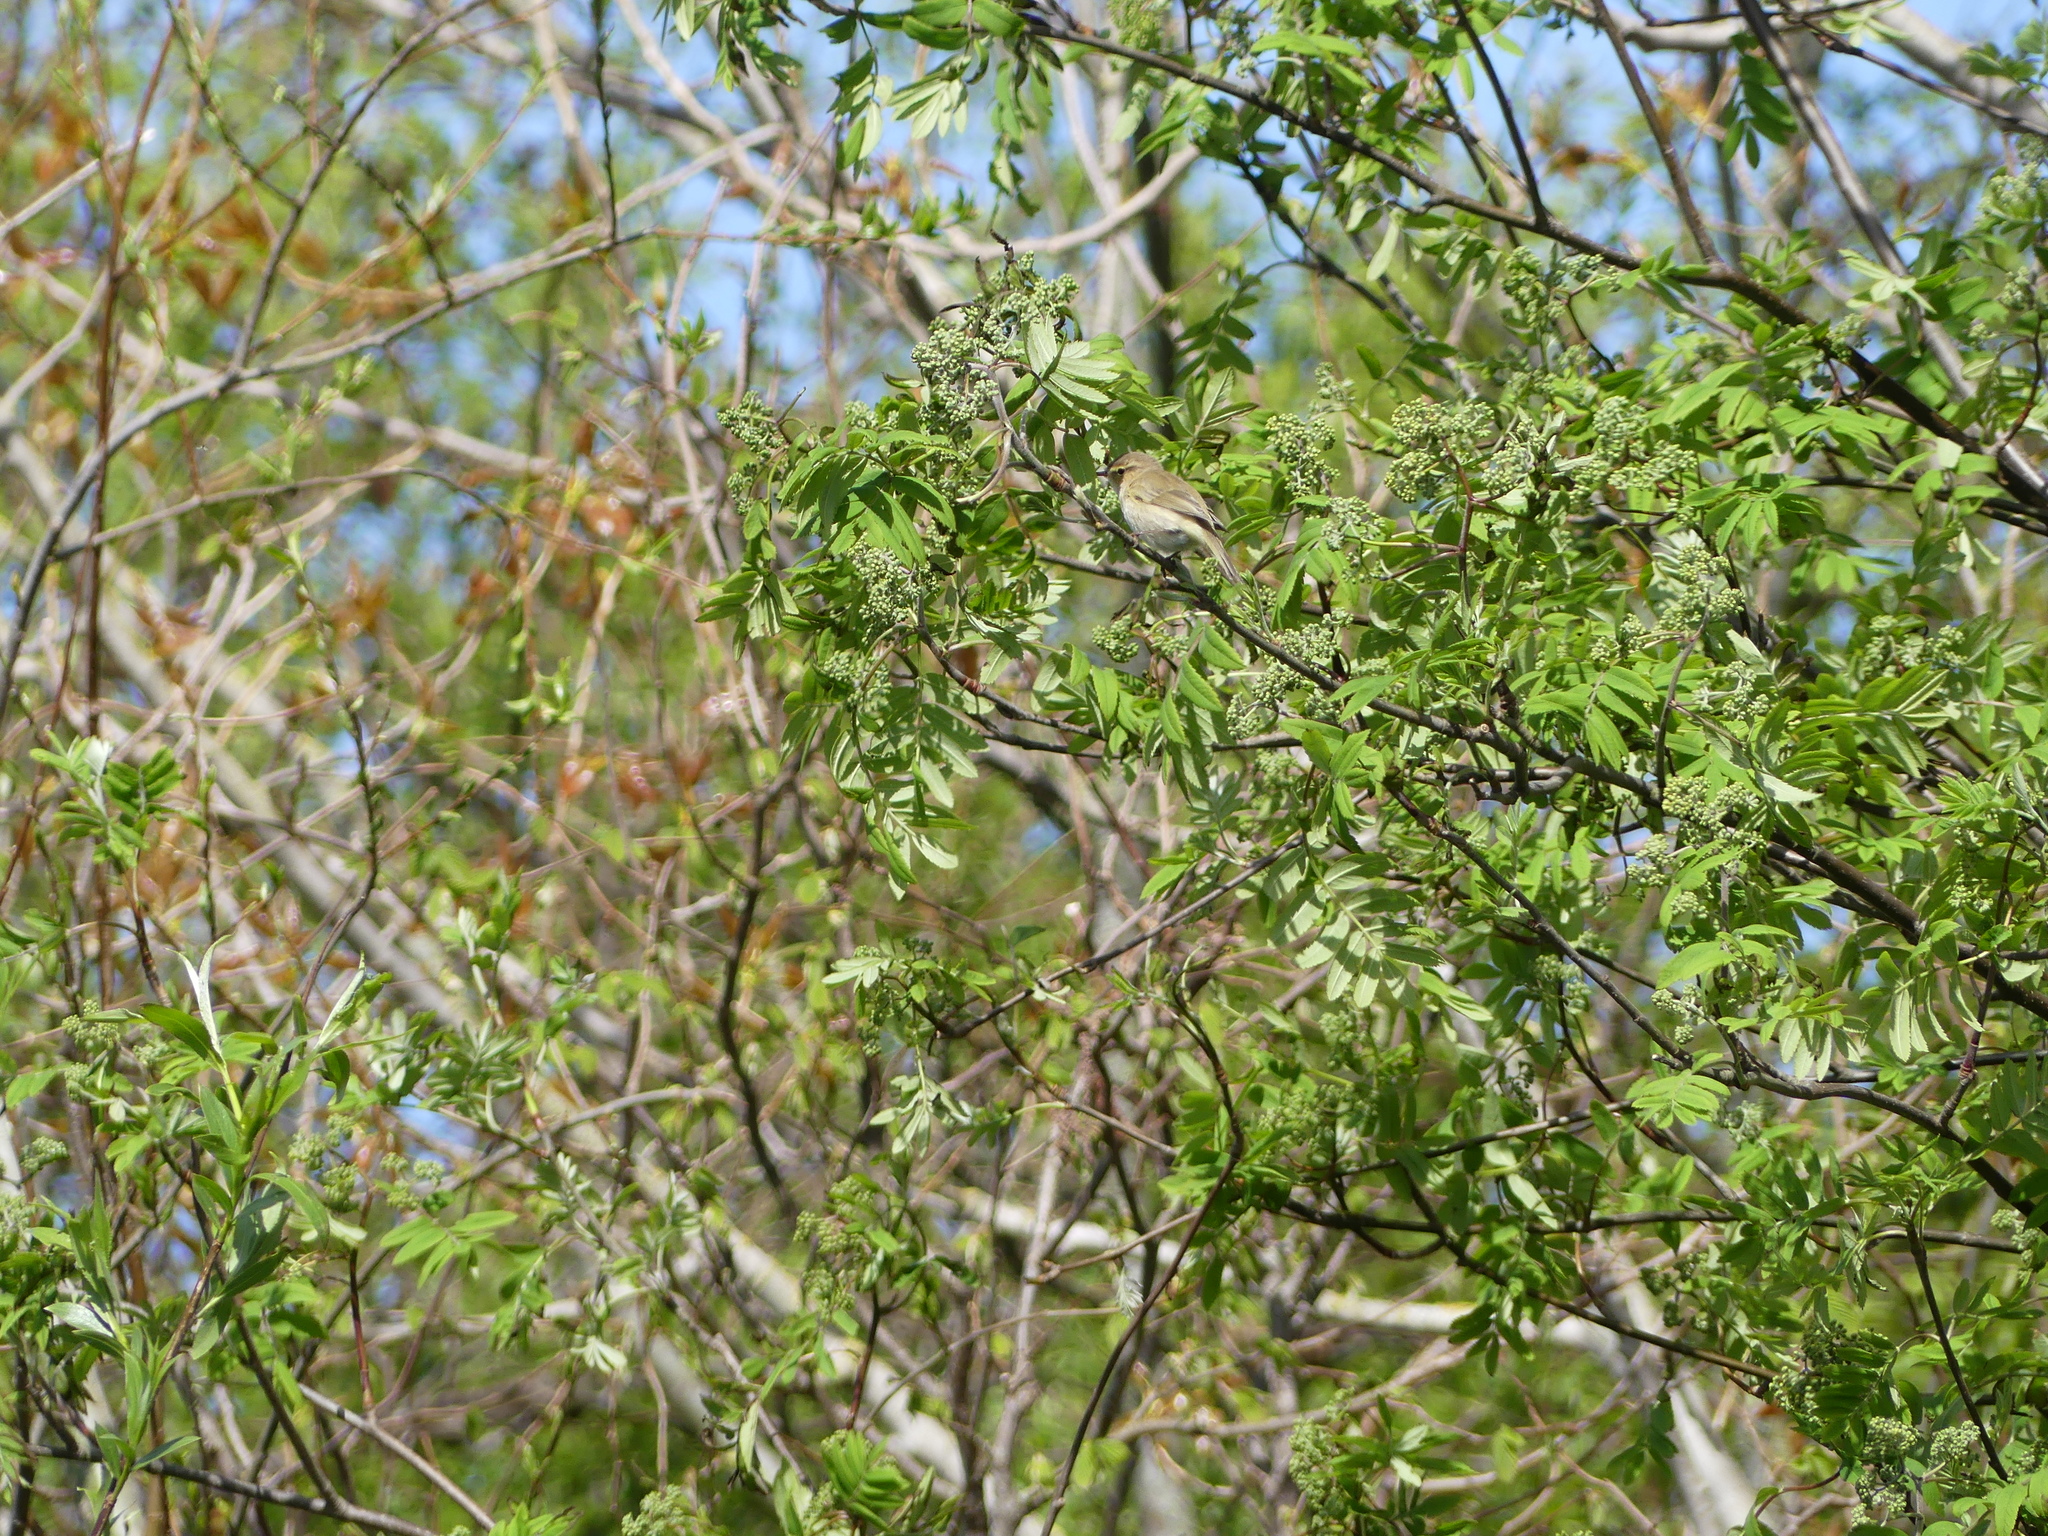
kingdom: Animalia
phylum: Chordata
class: Aves
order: Passeriformes
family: Phylloscopidae
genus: Phylloscopus
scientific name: Phylloscopus trochilus
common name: Willow warbler
